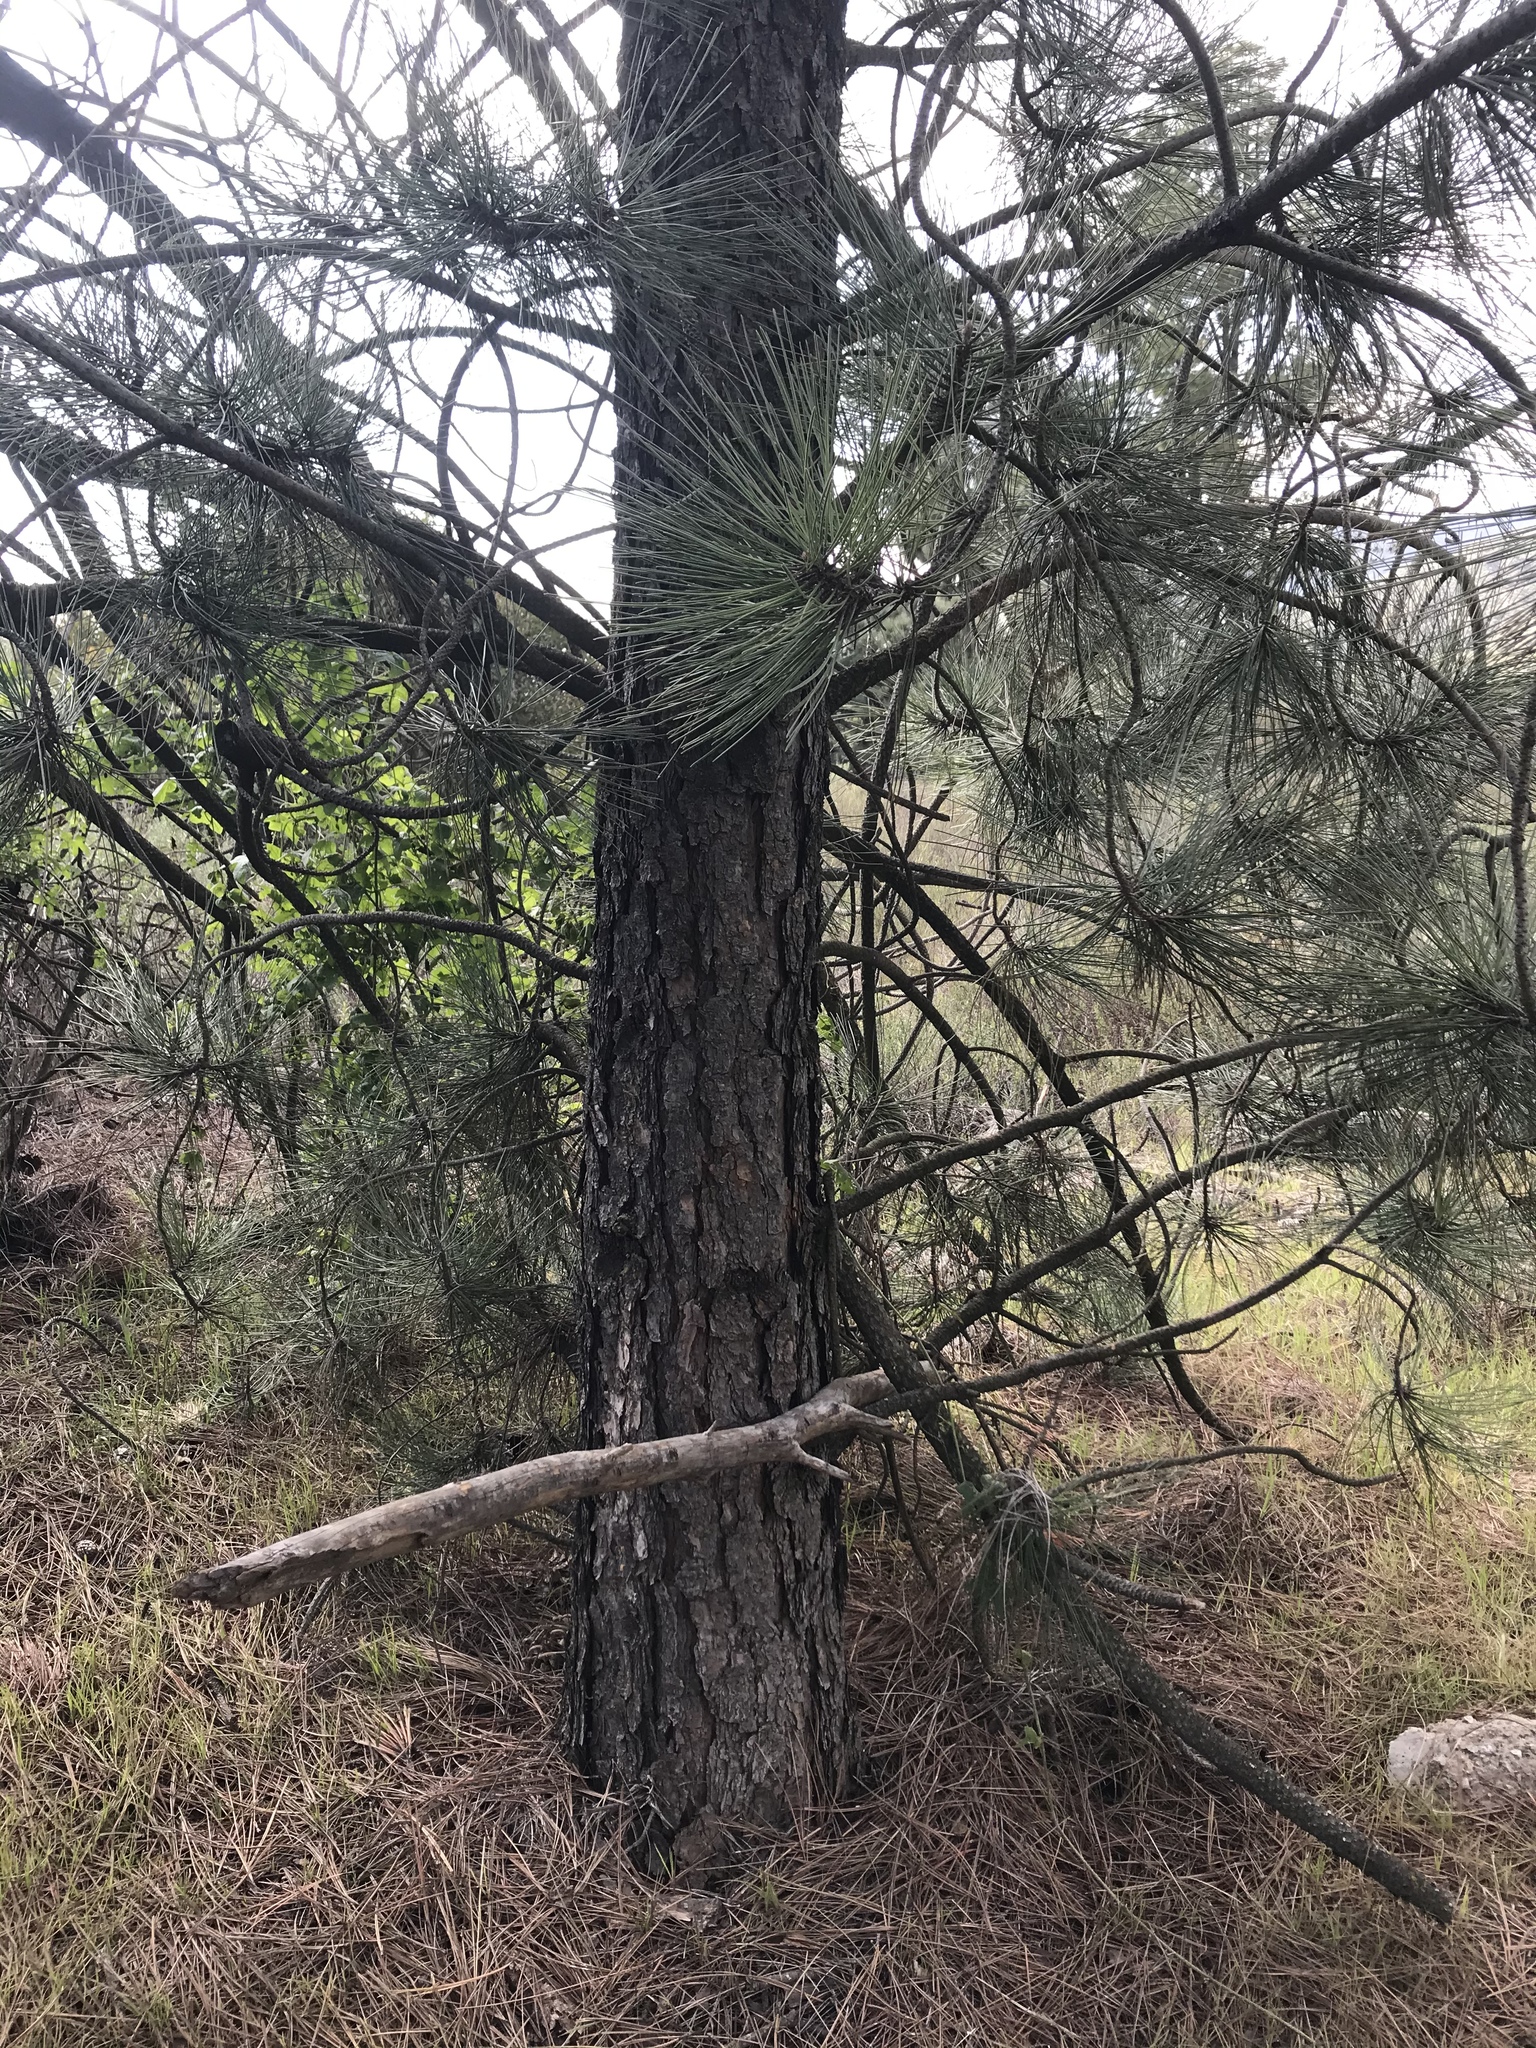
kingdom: Plantae
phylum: Tracheophyta
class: Pinopsida
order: Pinales
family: Pinaceae
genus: Pinus
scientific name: Pinus coulteri
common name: Coulter pine
